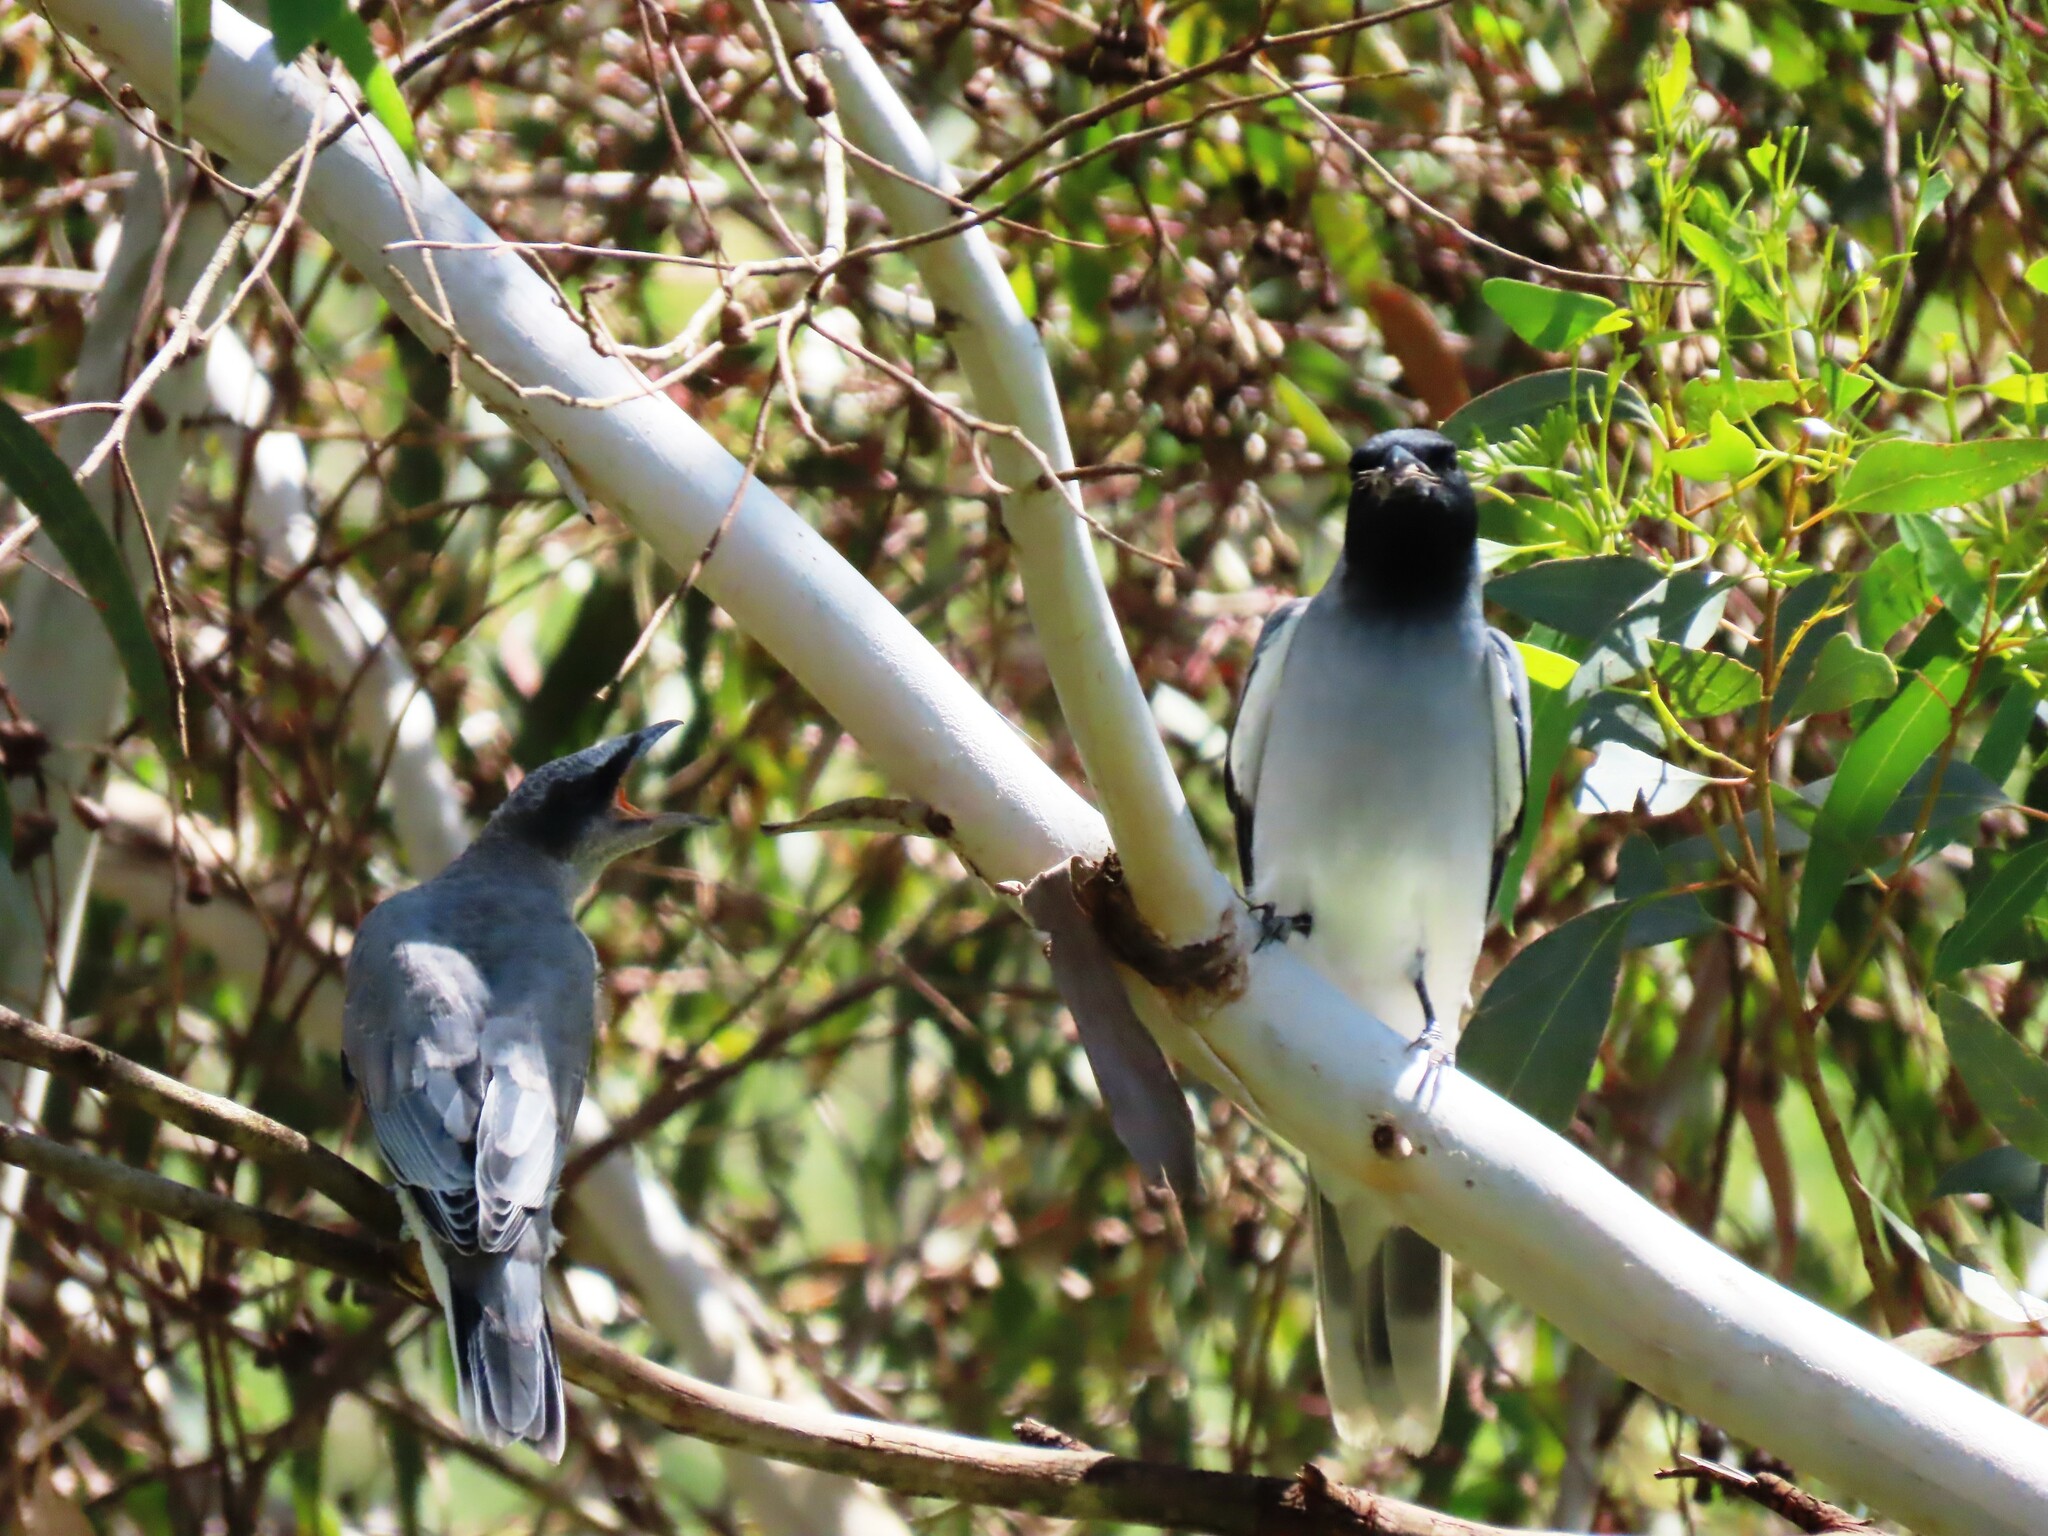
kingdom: Animalia
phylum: Chordata
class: Aves
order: Passeriformes
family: Campephagidae
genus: Coracina
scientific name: Coracina novaehollandiae
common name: Black-faced cuckooshrike
